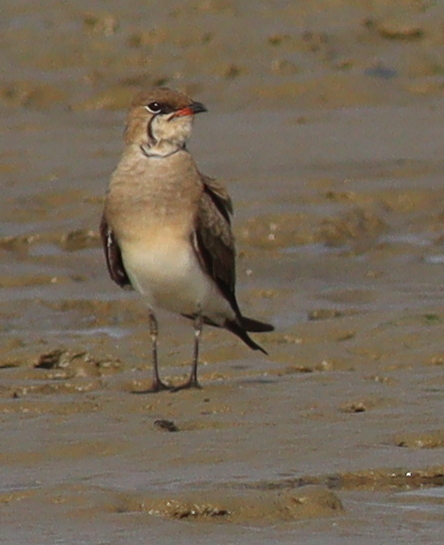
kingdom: Animalia
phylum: Chordata
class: Aves
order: Charadriiformes
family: Glareolidae
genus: Glareola
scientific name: Glareola pratincola
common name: Collared pratincole
